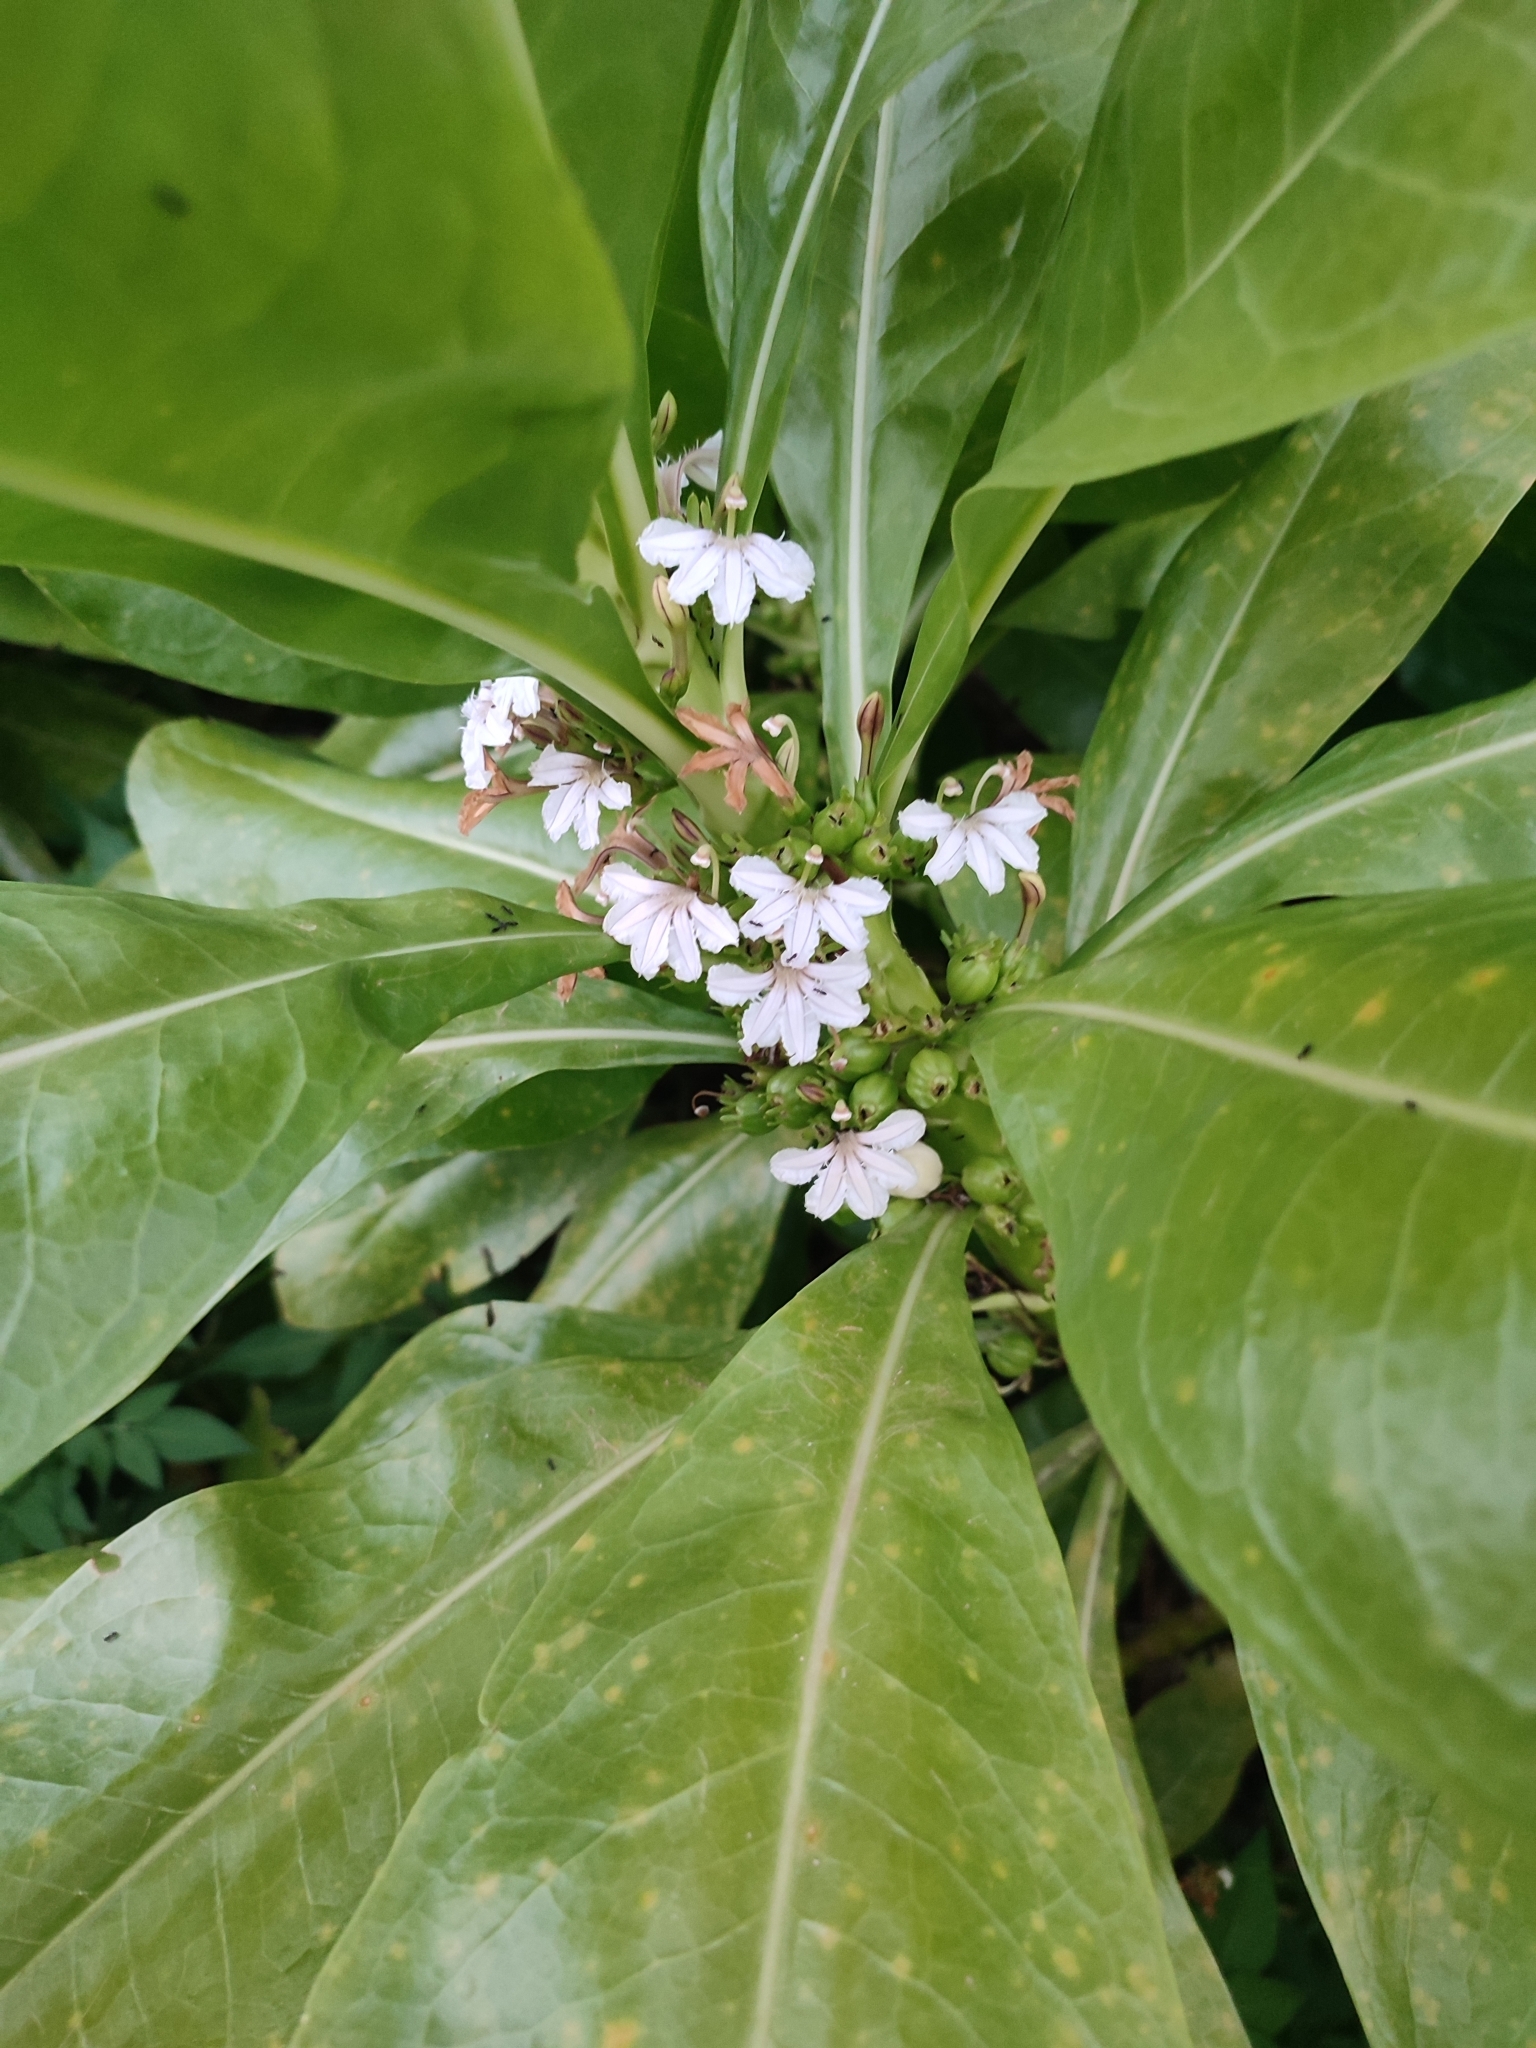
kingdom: Plantae
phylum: Tracheophyta
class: Magnoliopsida
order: Asterales
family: Goodeniaceae
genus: Scaevola
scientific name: Scaevola taccada
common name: Sea lettucetree
